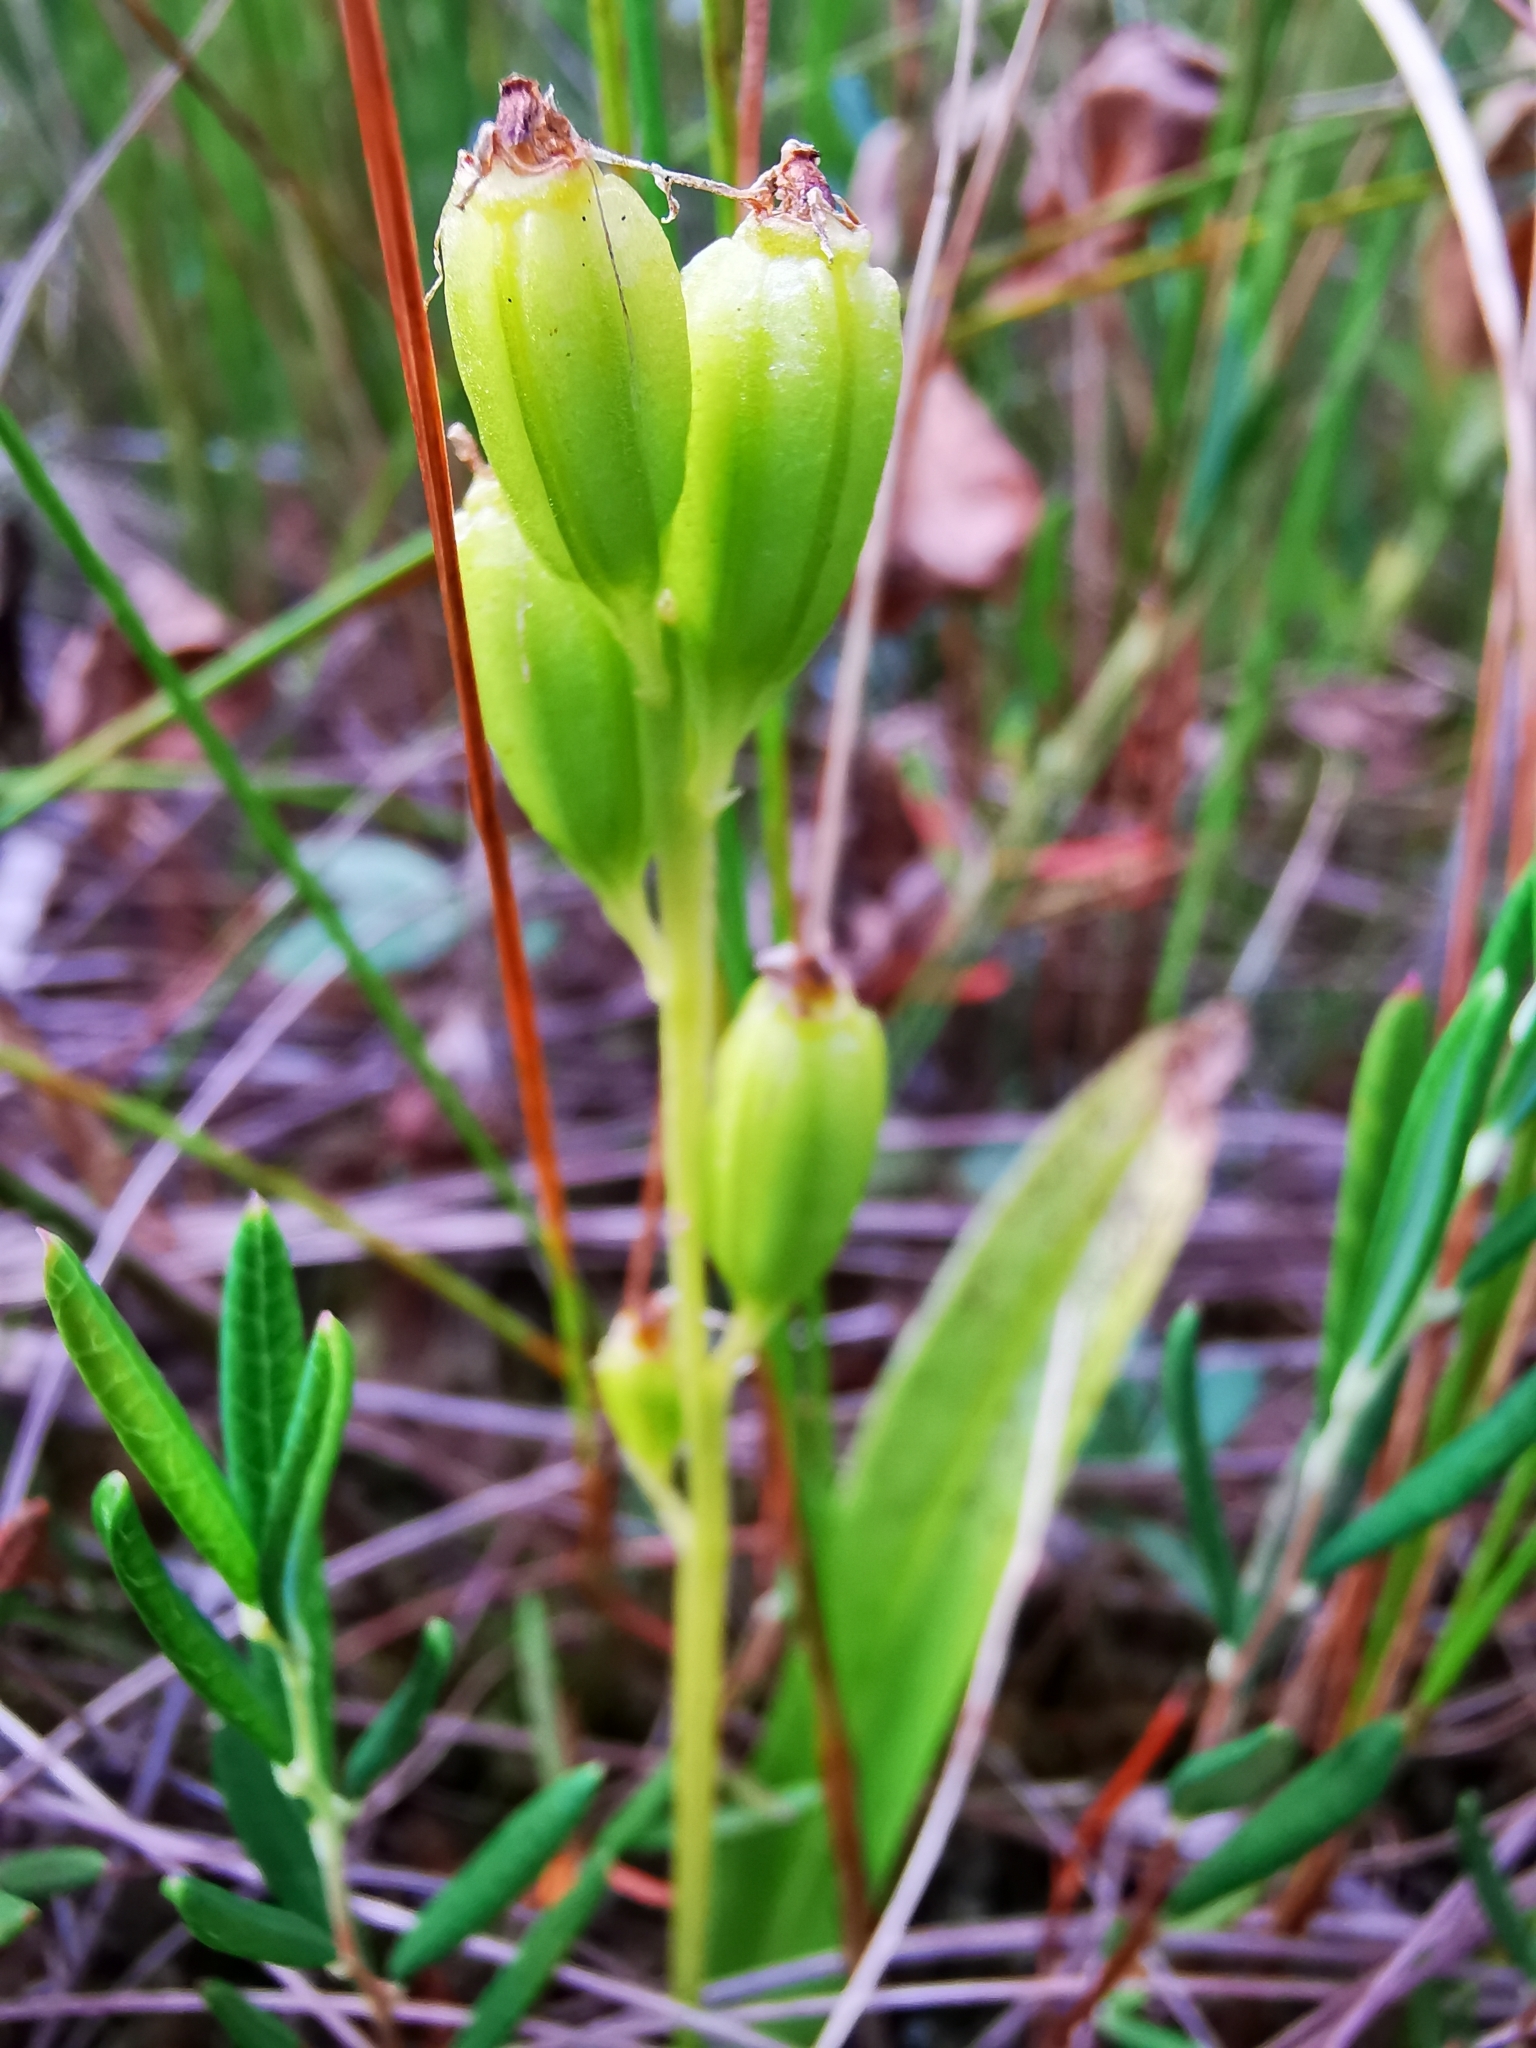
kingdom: Animalia
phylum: Arthropoda
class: Insecta
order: Coleoptera
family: Curculionidae
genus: Liparis
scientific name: Liparis loeselii
